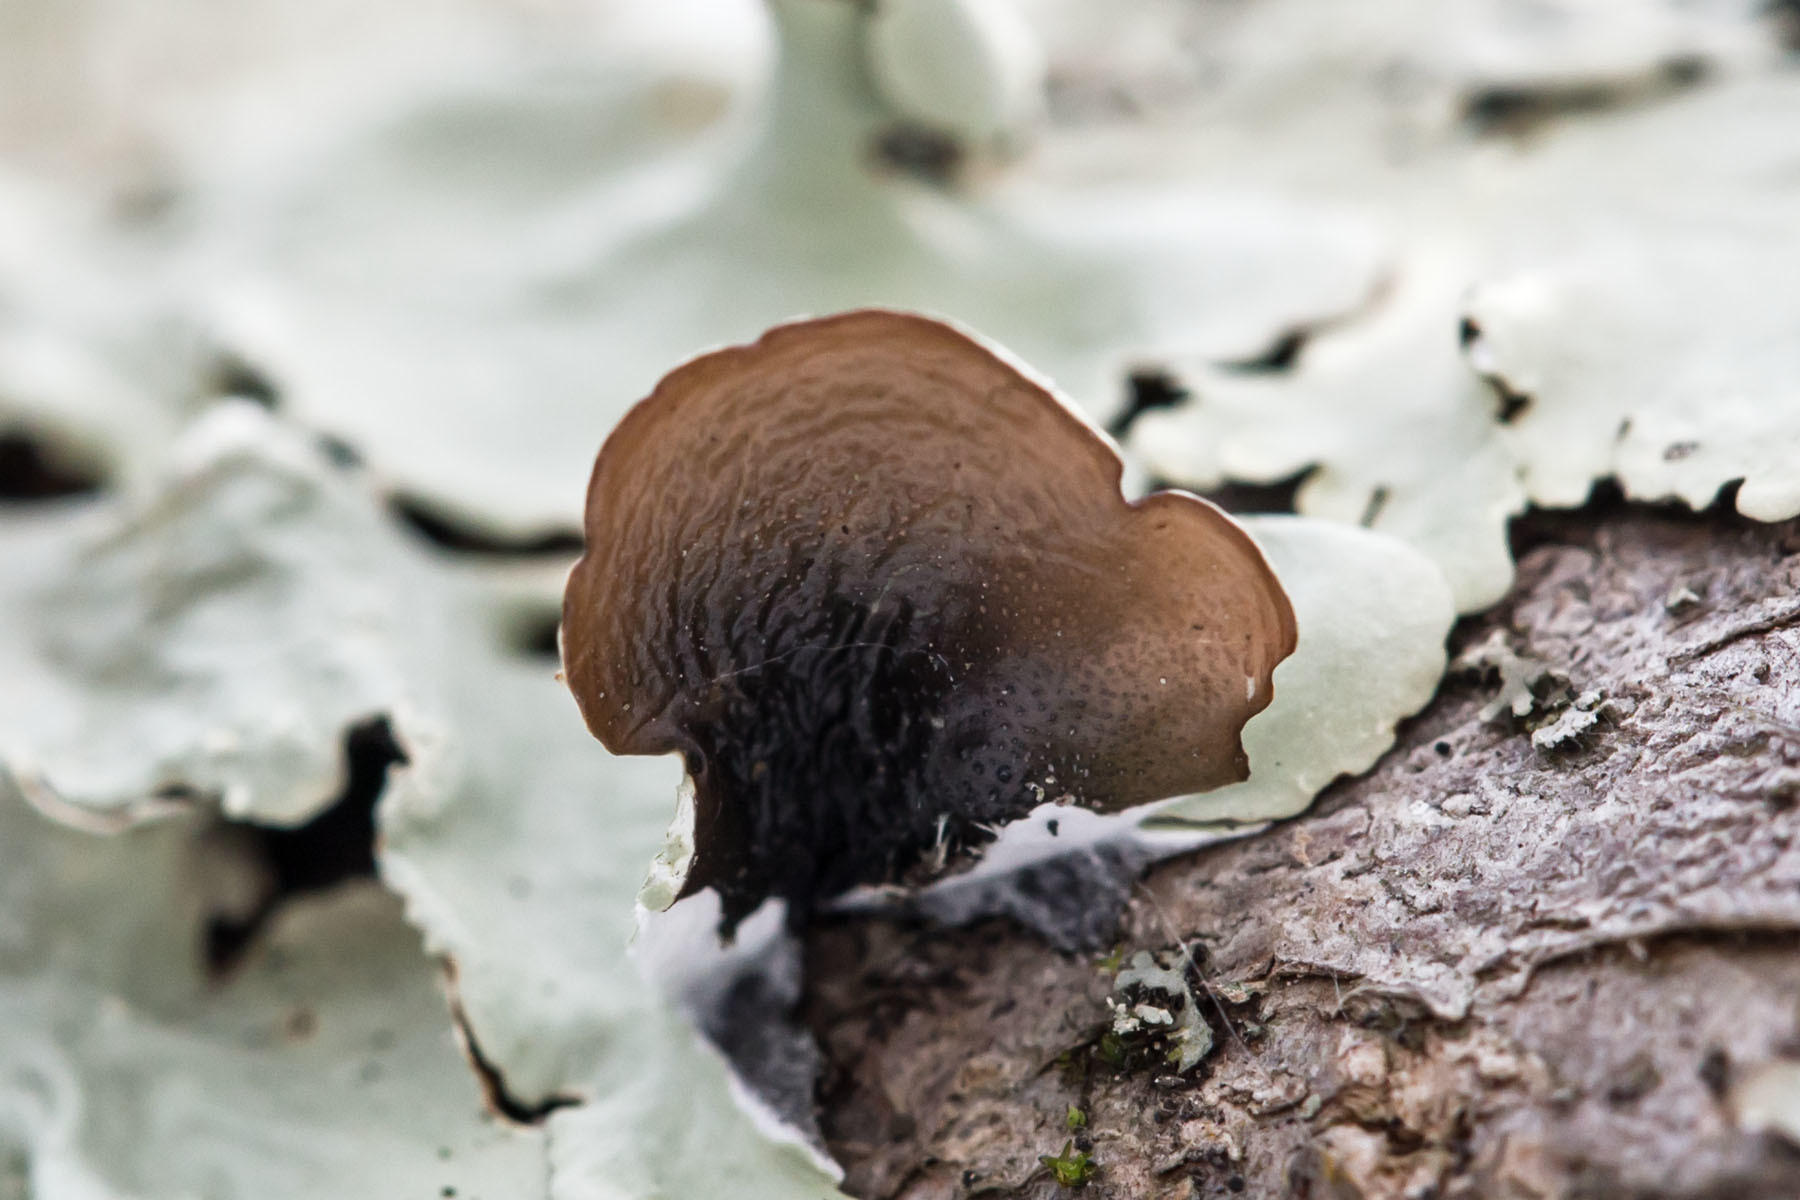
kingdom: Fungi
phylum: Ascomycota
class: Lecanoromycetes
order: Lecanorales
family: Parmeliaceae
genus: Flavoparmelia
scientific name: Flavoparmelia caperata
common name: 40-mile per hour lichen
